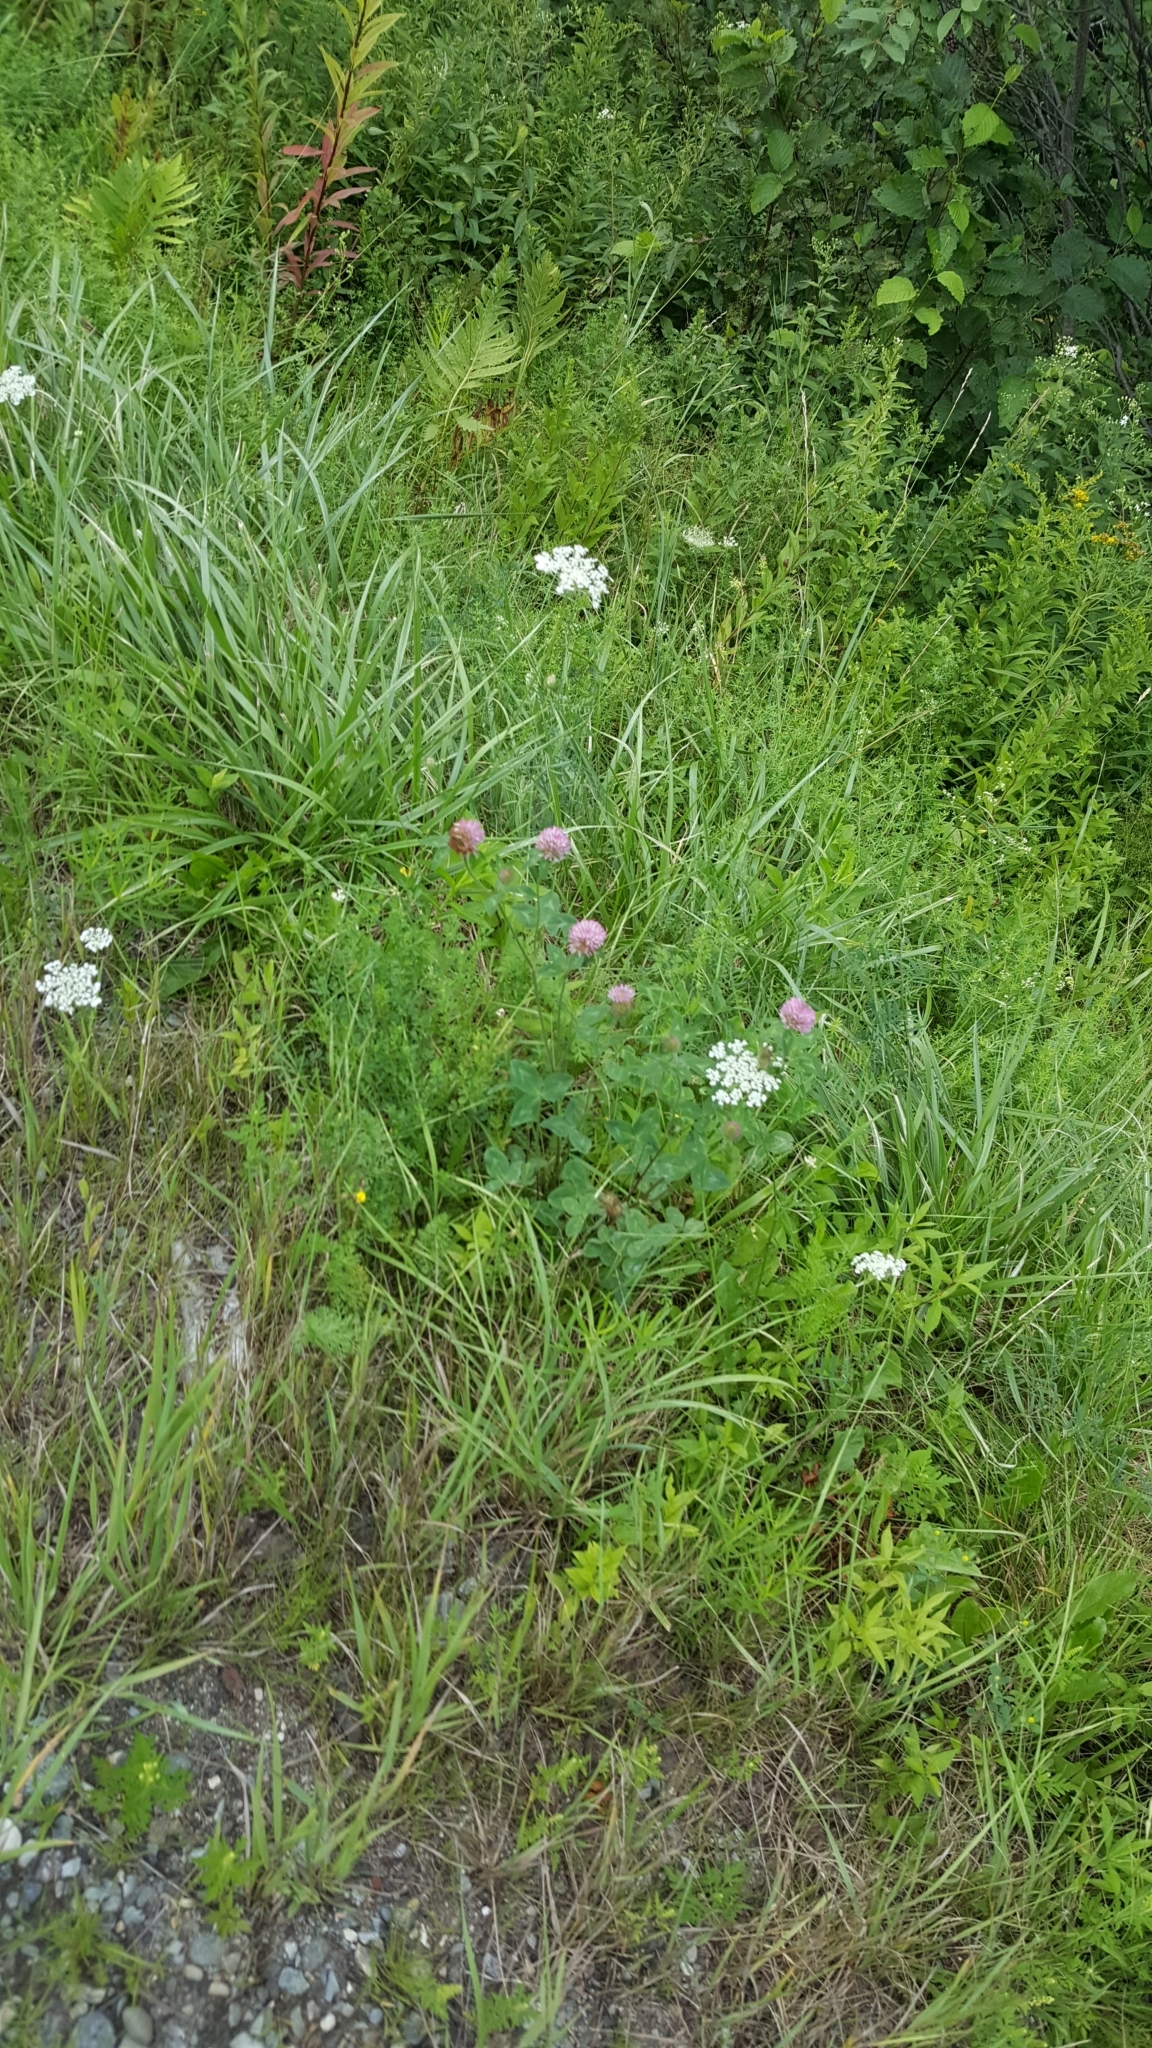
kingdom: Plantae
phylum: Tracheophyta
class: Magnoliopsida
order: Fabales
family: Fabaceae
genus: Trifolium
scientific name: Trifolium pratense
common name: Red clover
